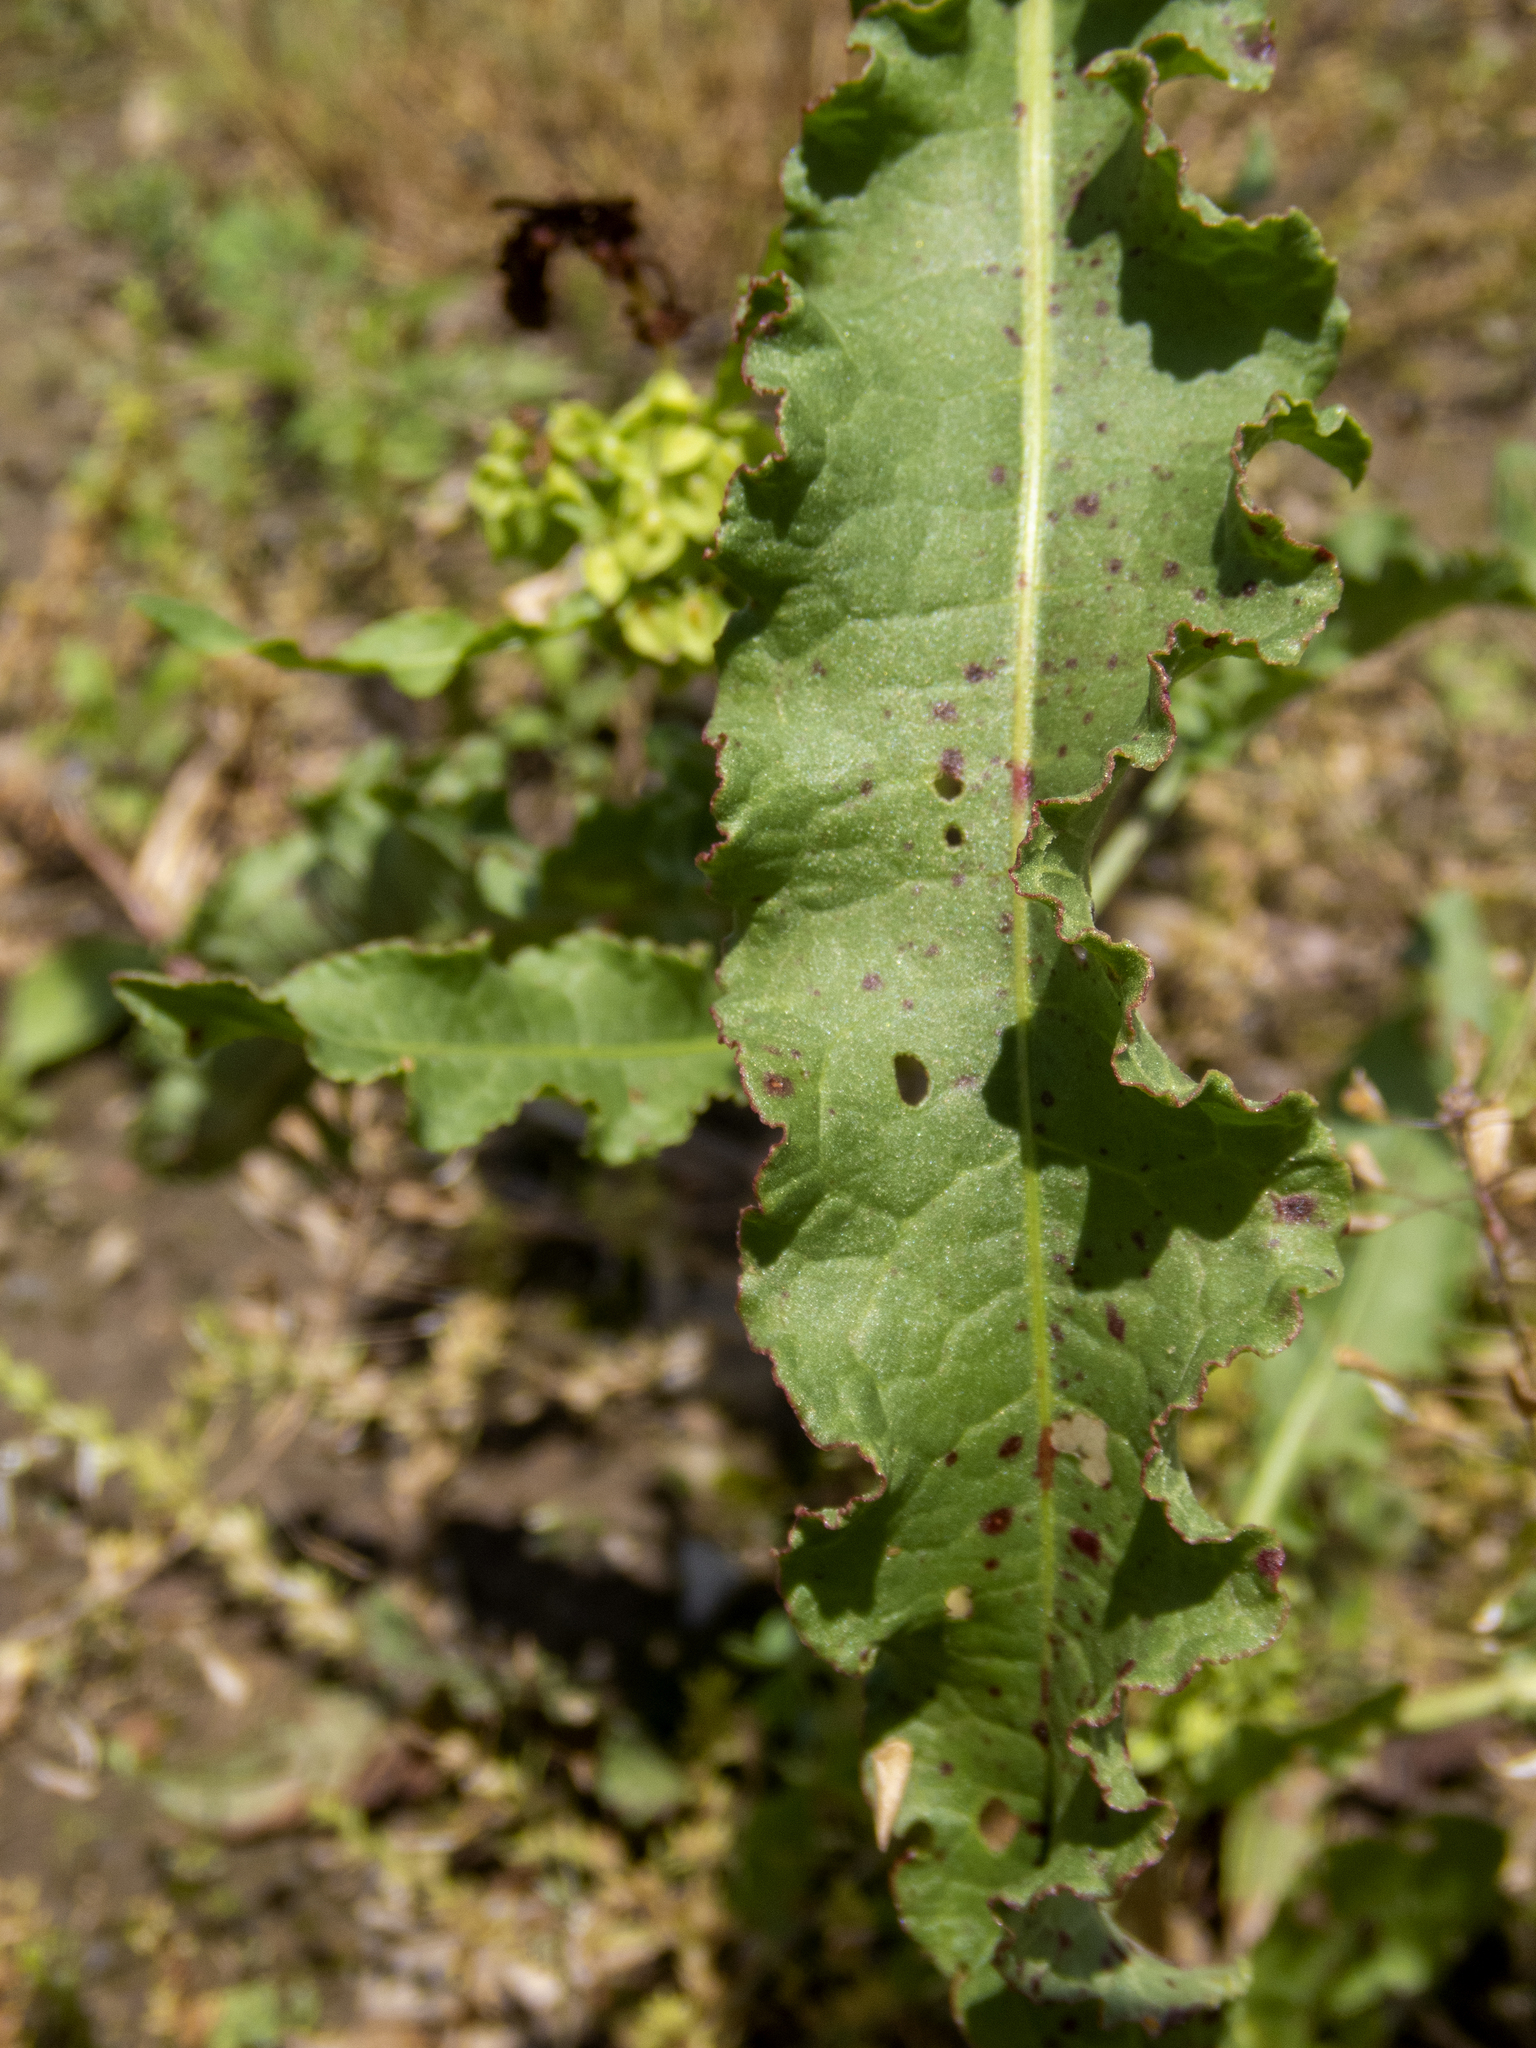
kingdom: Plantae
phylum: Tracheophyta
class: Magnoliopsida
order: Caryophyllales
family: Polygonaceae
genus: Rumex
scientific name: Rumex crispus
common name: Curled dock
